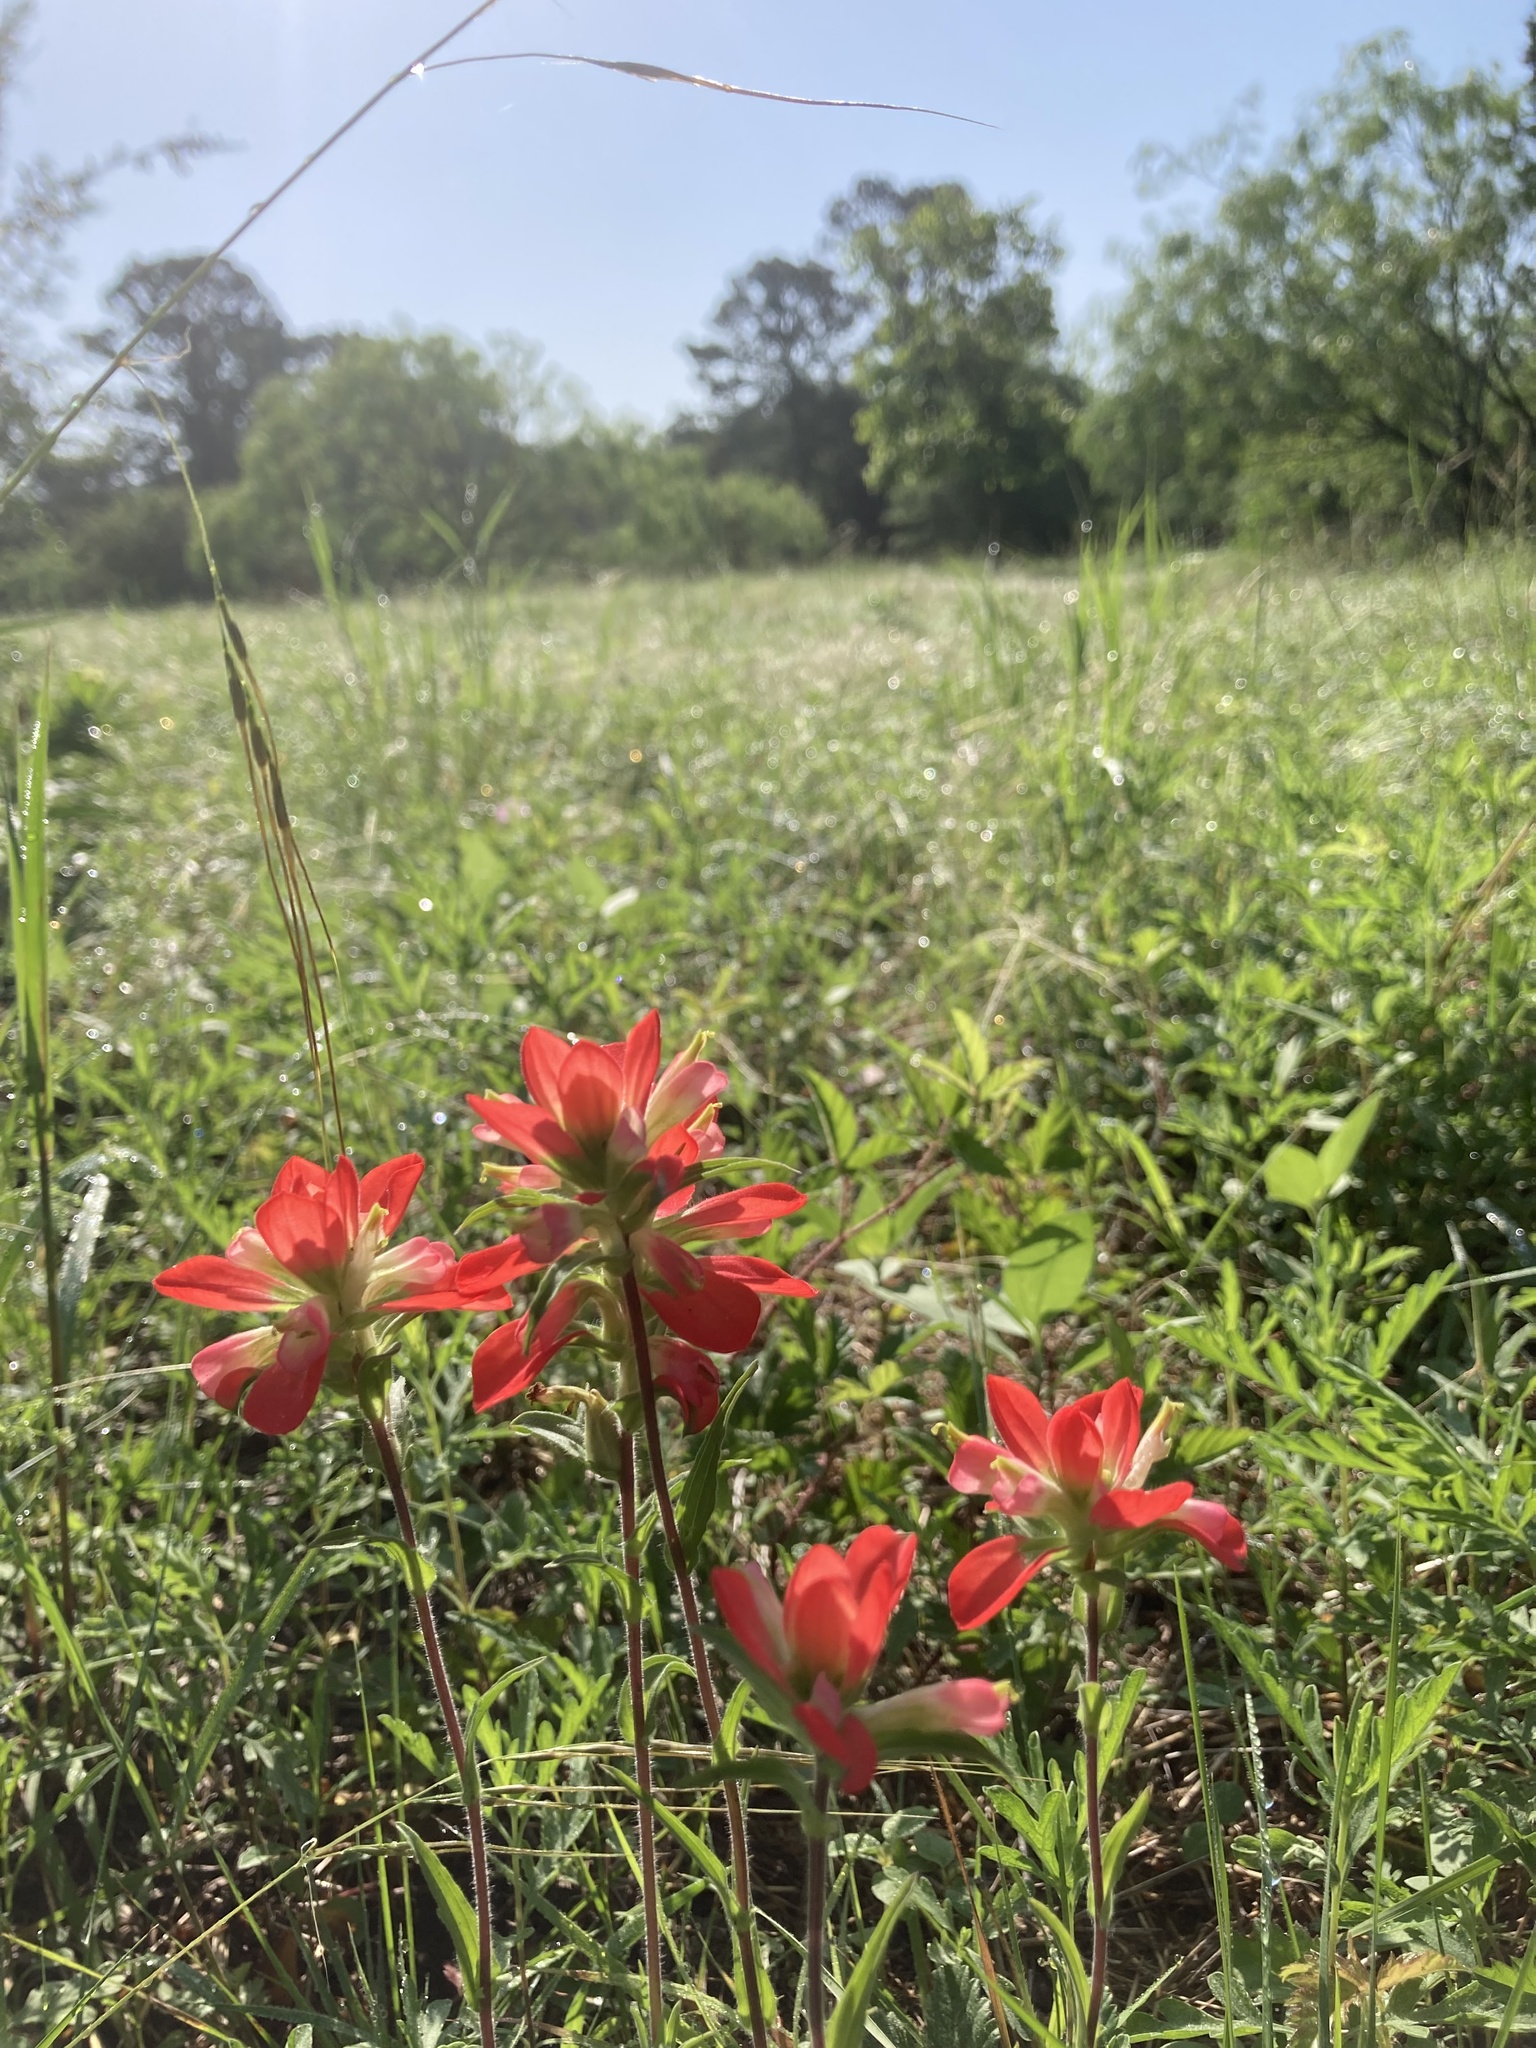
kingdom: Plantae
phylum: Tracheophyta
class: Magnoliopsida
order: Lamiales
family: Orobanchaceae
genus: Castilleja
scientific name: Castilleja indivisa
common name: Texas paintbrush
